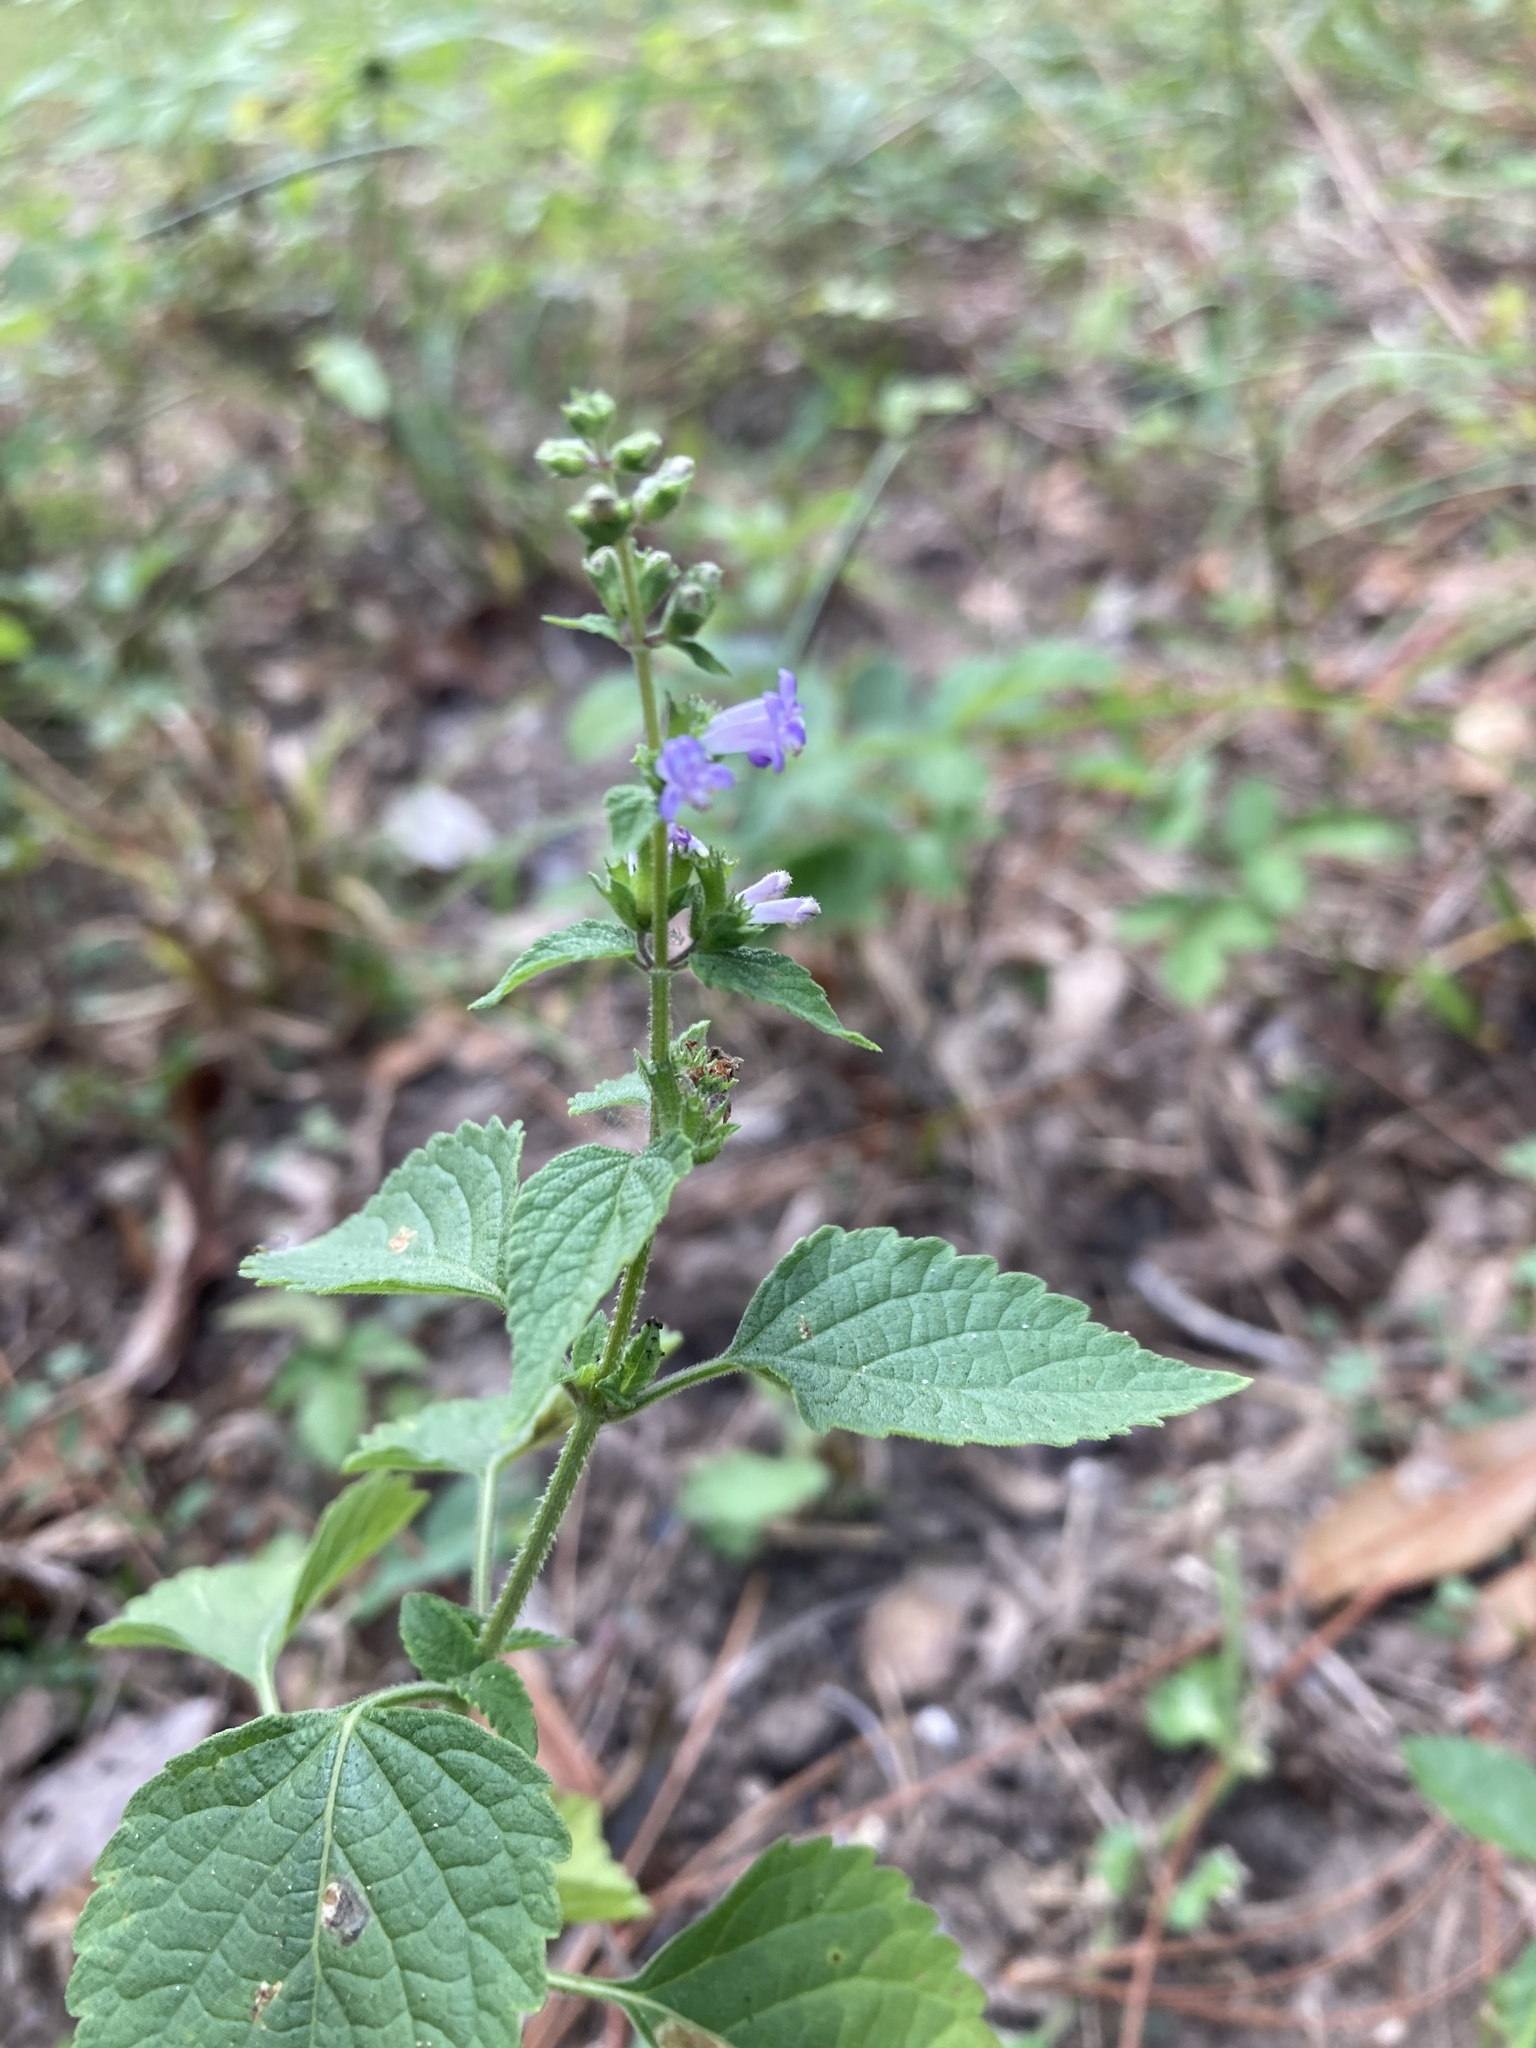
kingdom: Plantae
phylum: Tracheophyta
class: Magnoliopsida
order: Lamiales
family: Lamiaceae
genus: Cantinoa
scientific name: Cantinoa mutabilis
